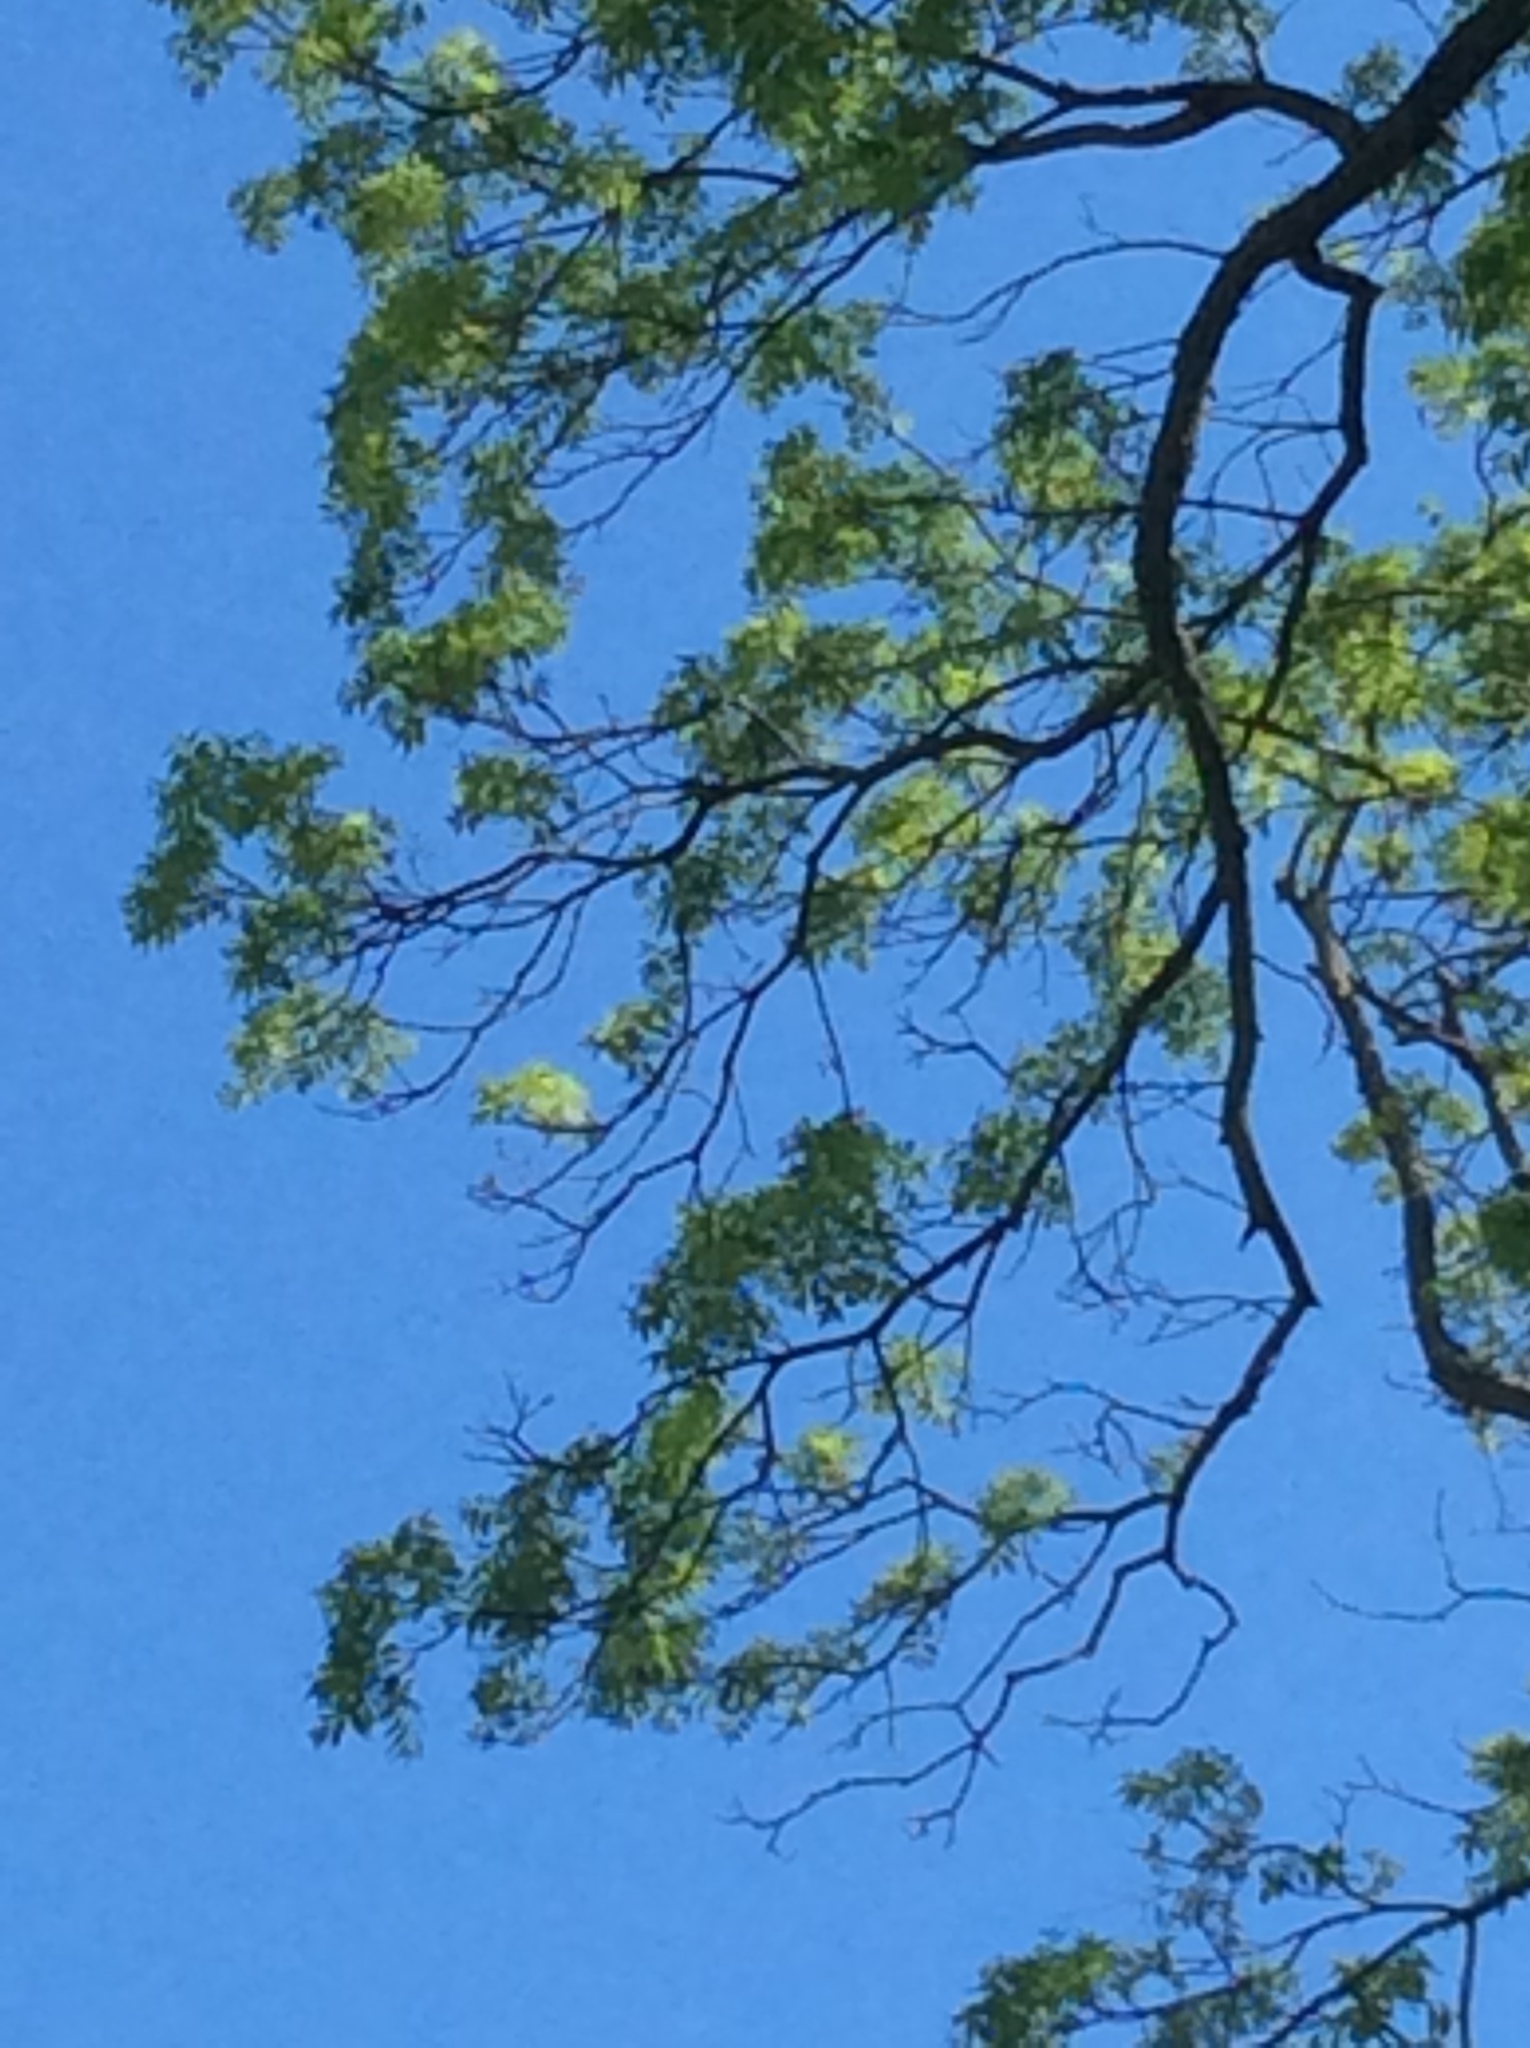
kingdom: Plantae
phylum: Tracheophyta
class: Magnoliopsida
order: Fagales
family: Juglandaceae
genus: Carya
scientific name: Carya illinoinensis
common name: Pecan
